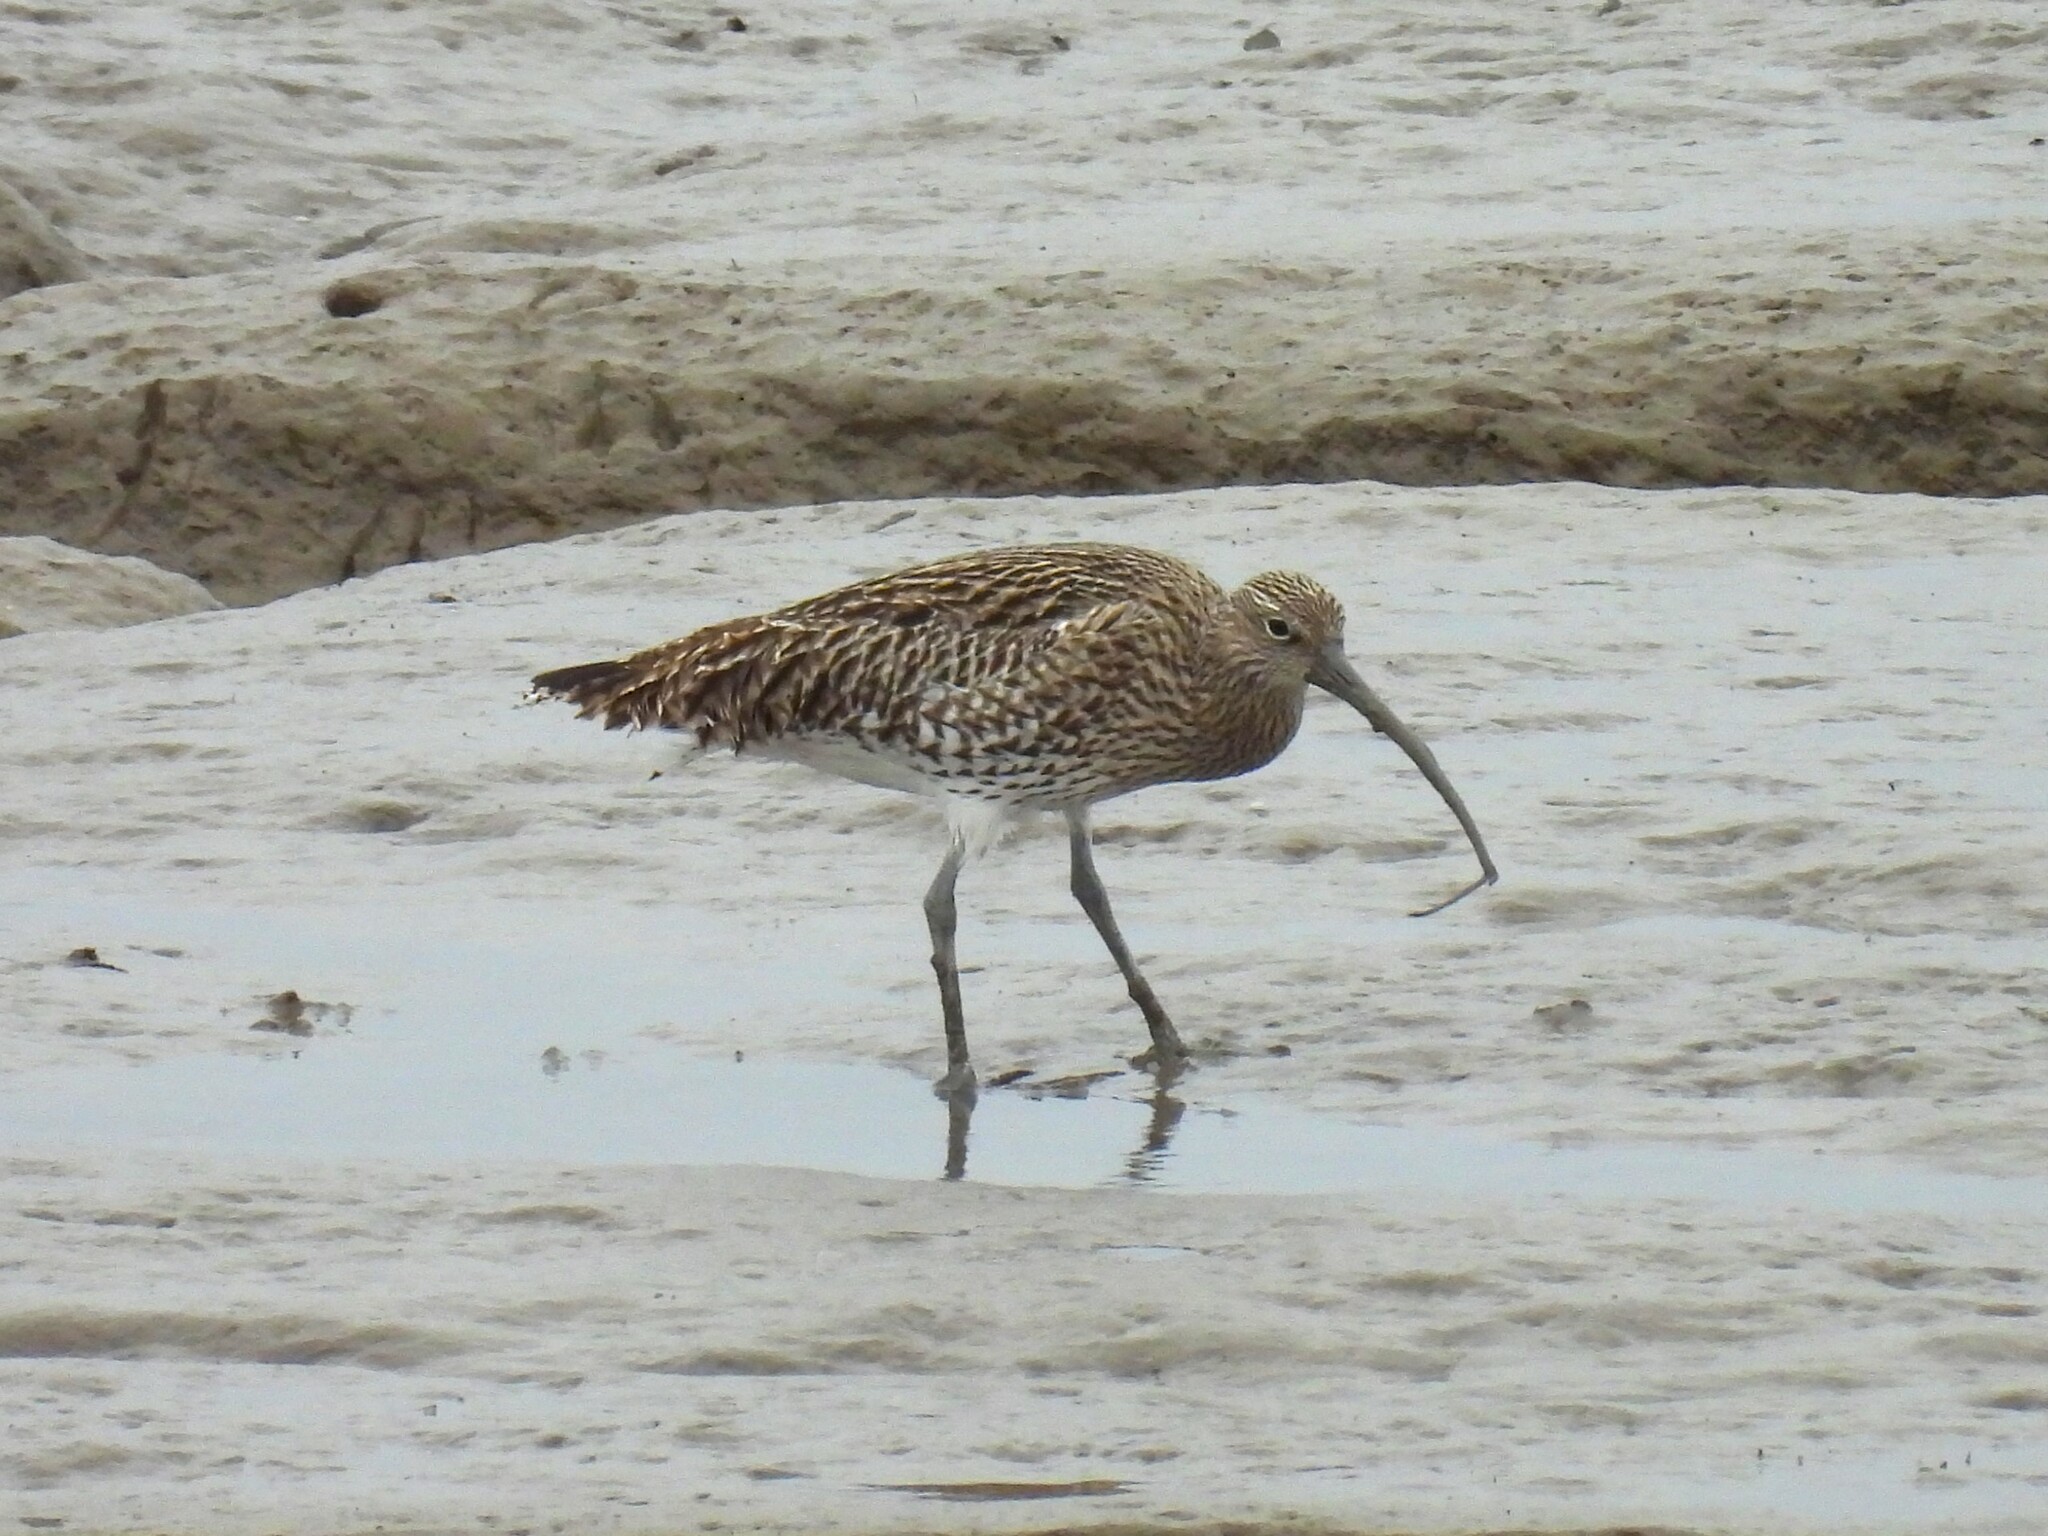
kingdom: Animalia
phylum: Chordata
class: Aves
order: Charadriiformes
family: Scolopacidae
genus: Numenius
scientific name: Numenius arquata
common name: Eurasian curlew
